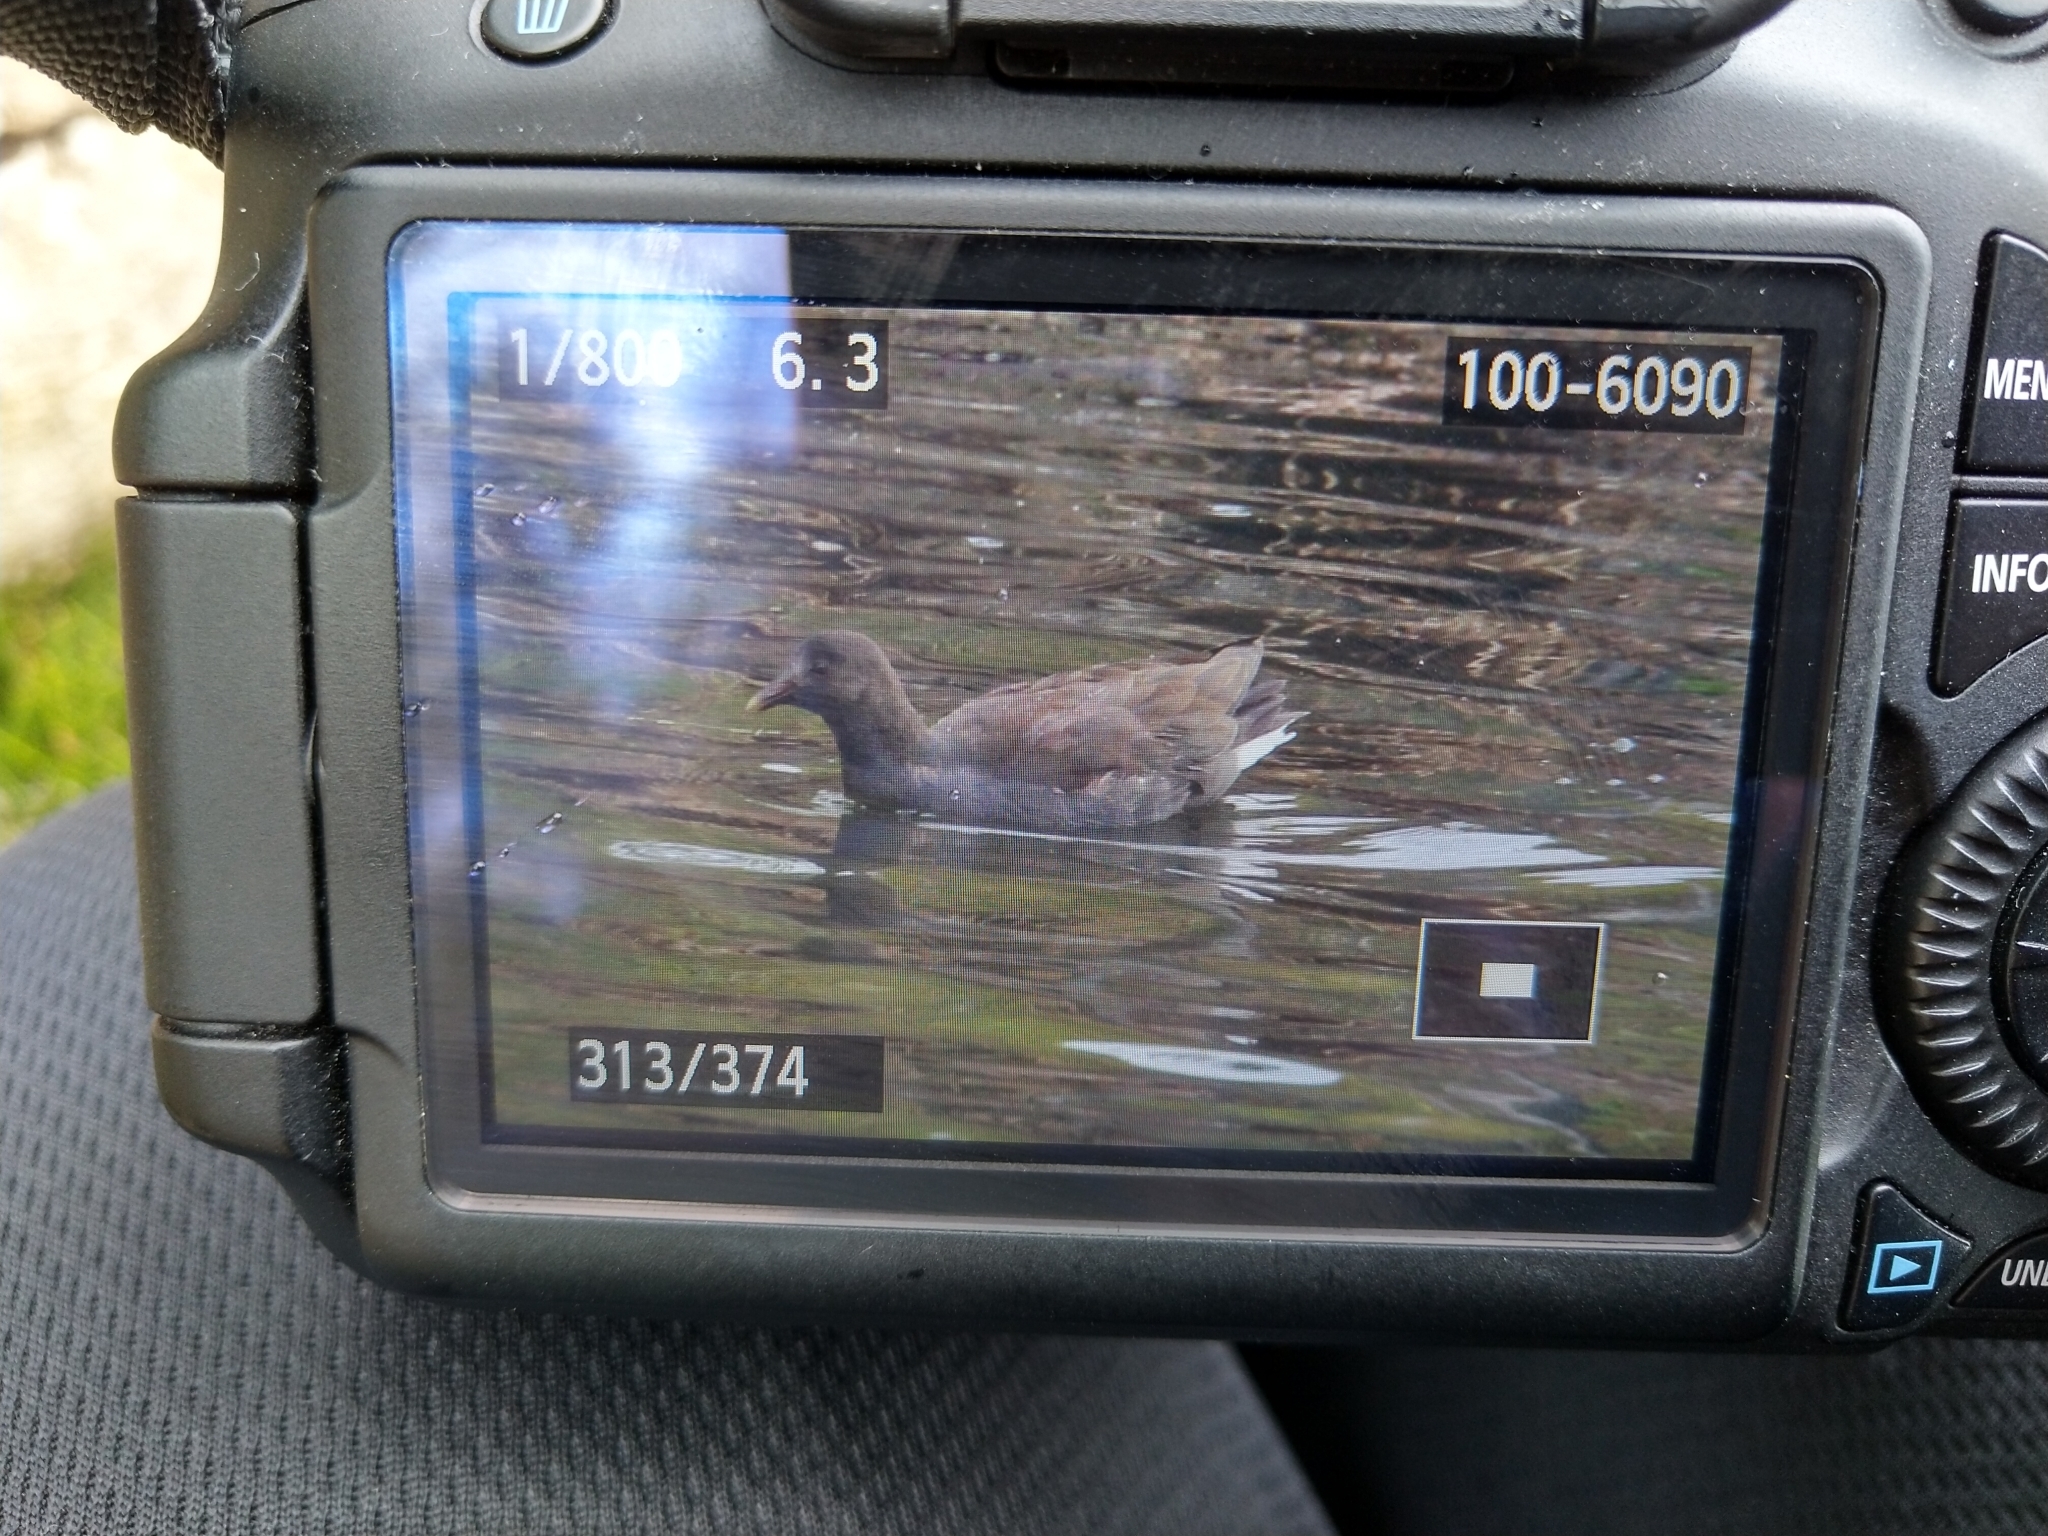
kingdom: Animalia
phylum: Chordata
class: Aves
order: Gruiformes
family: Rallidae
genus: Gallinula
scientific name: Gallinula tenebrosa
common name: Dusky moorhen
